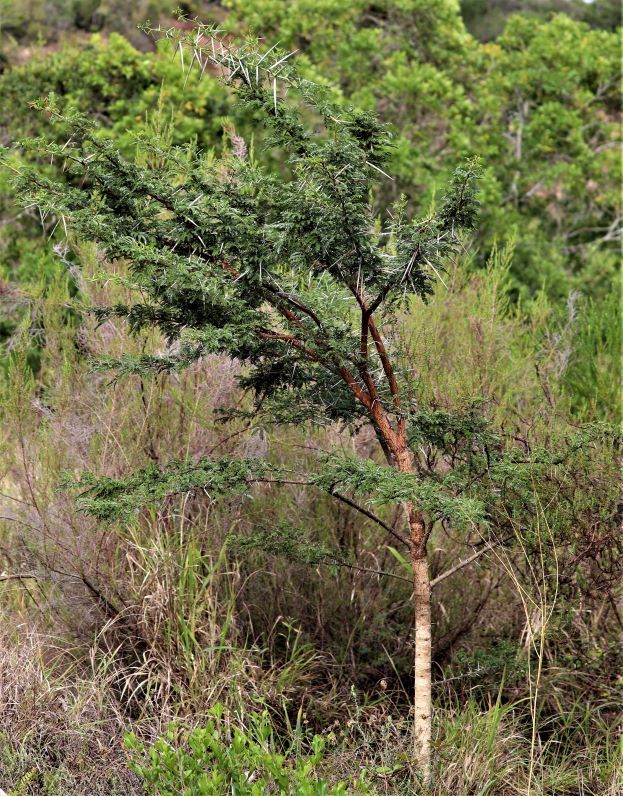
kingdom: Plantae
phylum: Tracheophyta
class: Magnoliopsida
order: Fabales
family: Fabaceae
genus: Vachellia
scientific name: Vachellia karroo
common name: Sweet thorn
